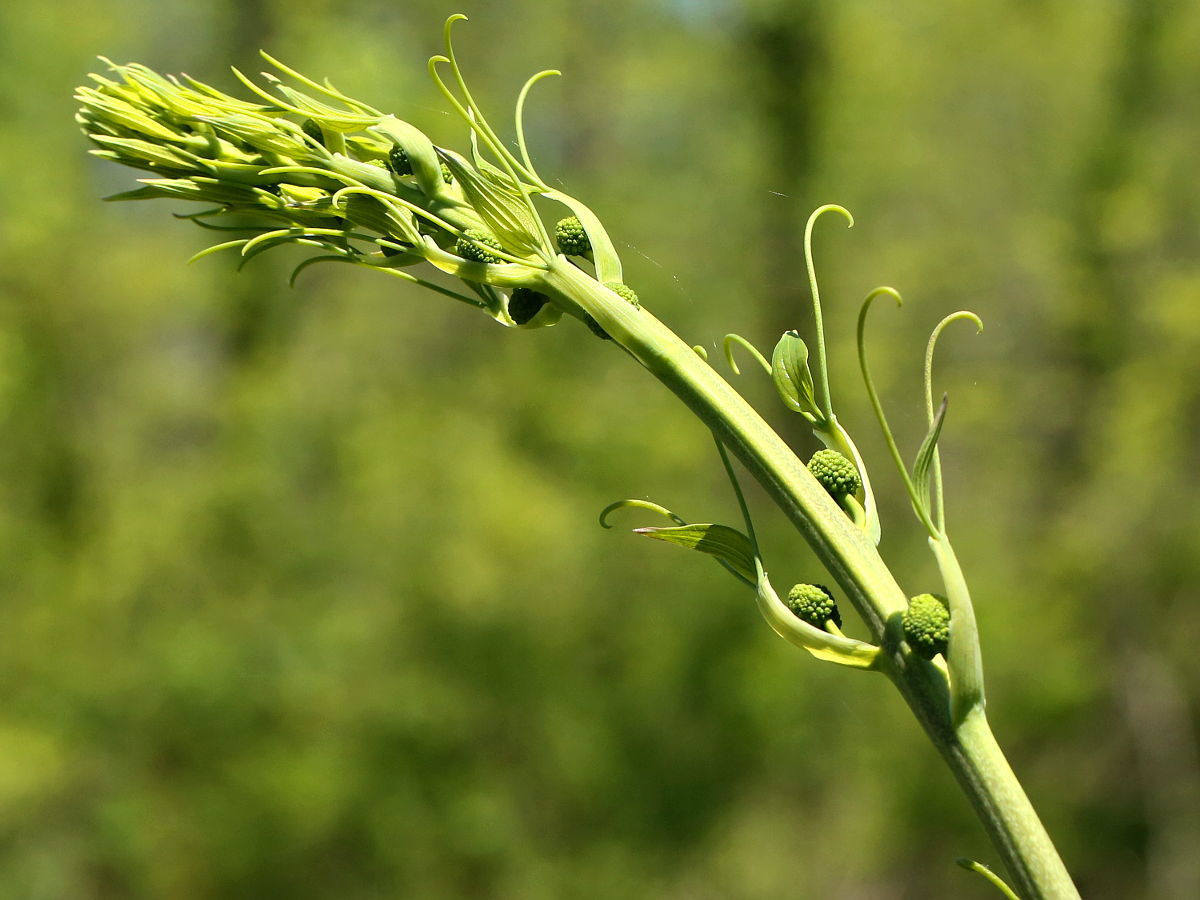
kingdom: Plantae
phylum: Tracheophyta
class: Liliopsida
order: Liliales
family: Smilacaceae
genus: Smilax
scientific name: Smilax lasioneura
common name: Blue ridge carrionflower
